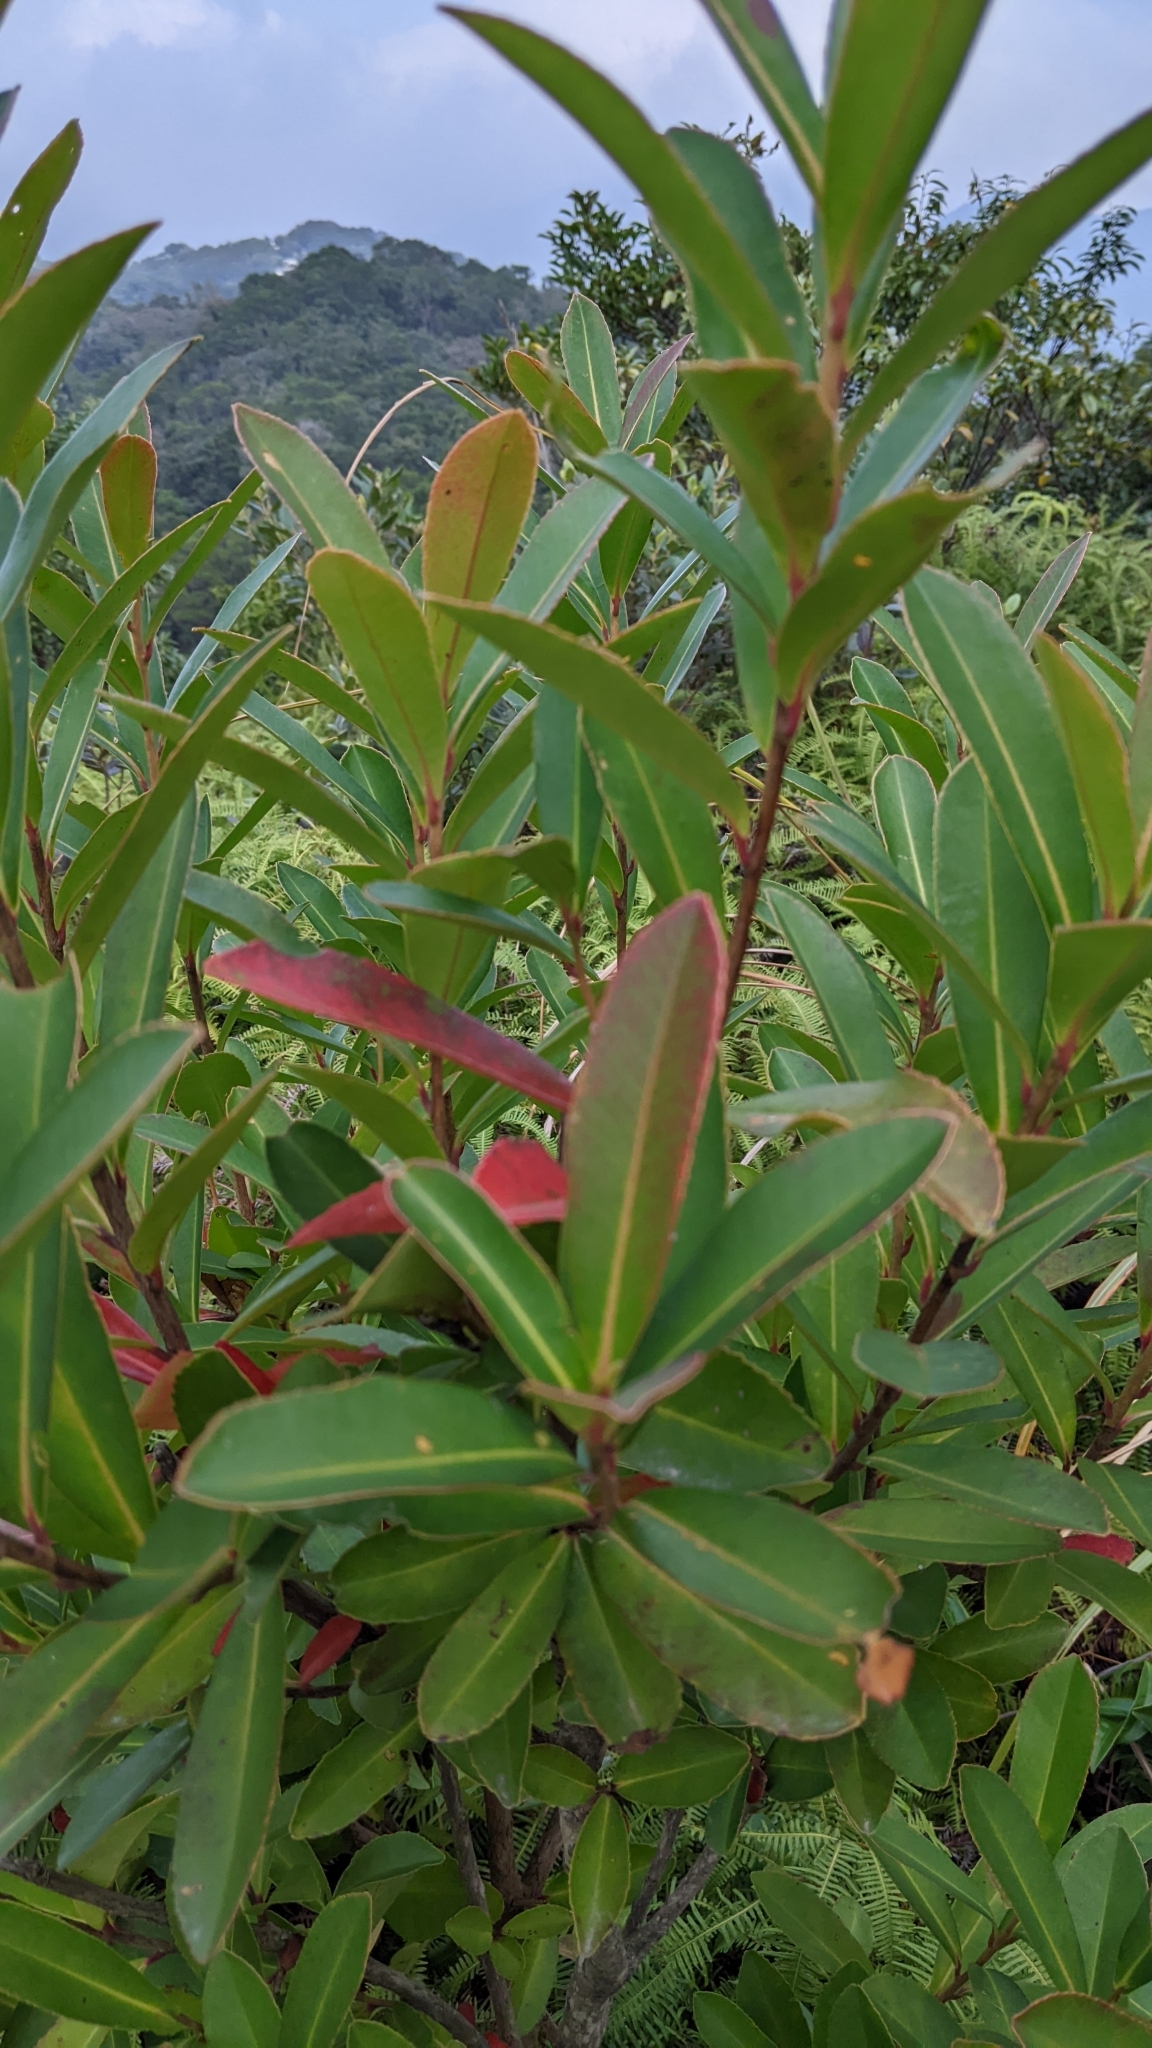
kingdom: Plantae
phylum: Tracheophyta
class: Magnoliopsida
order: Ericales
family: Theaceae
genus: Polyspora
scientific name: Polyspora axillaris
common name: Fried egg tree
